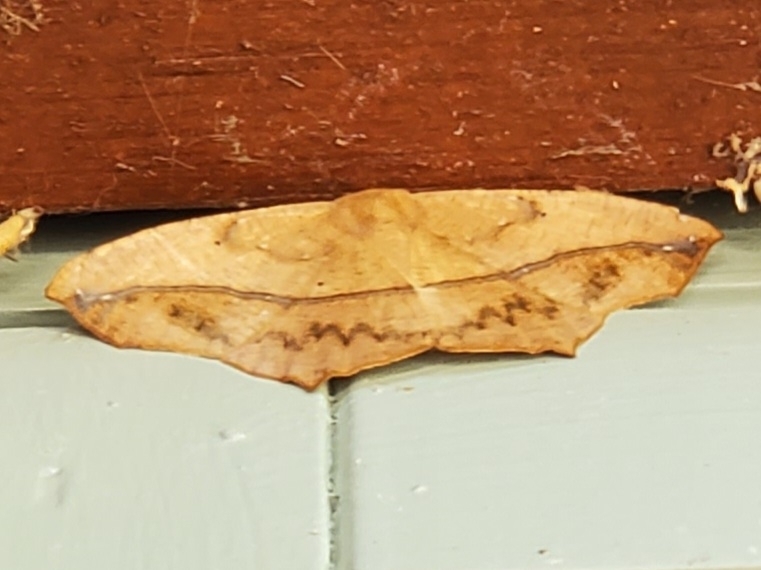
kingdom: Animalia
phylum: Arthropoda
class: Insecta
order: Lepidoptera
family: Geometridae
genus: Prochoerodes
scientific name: Prochoerodes lineola
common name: Large maple spanworm
